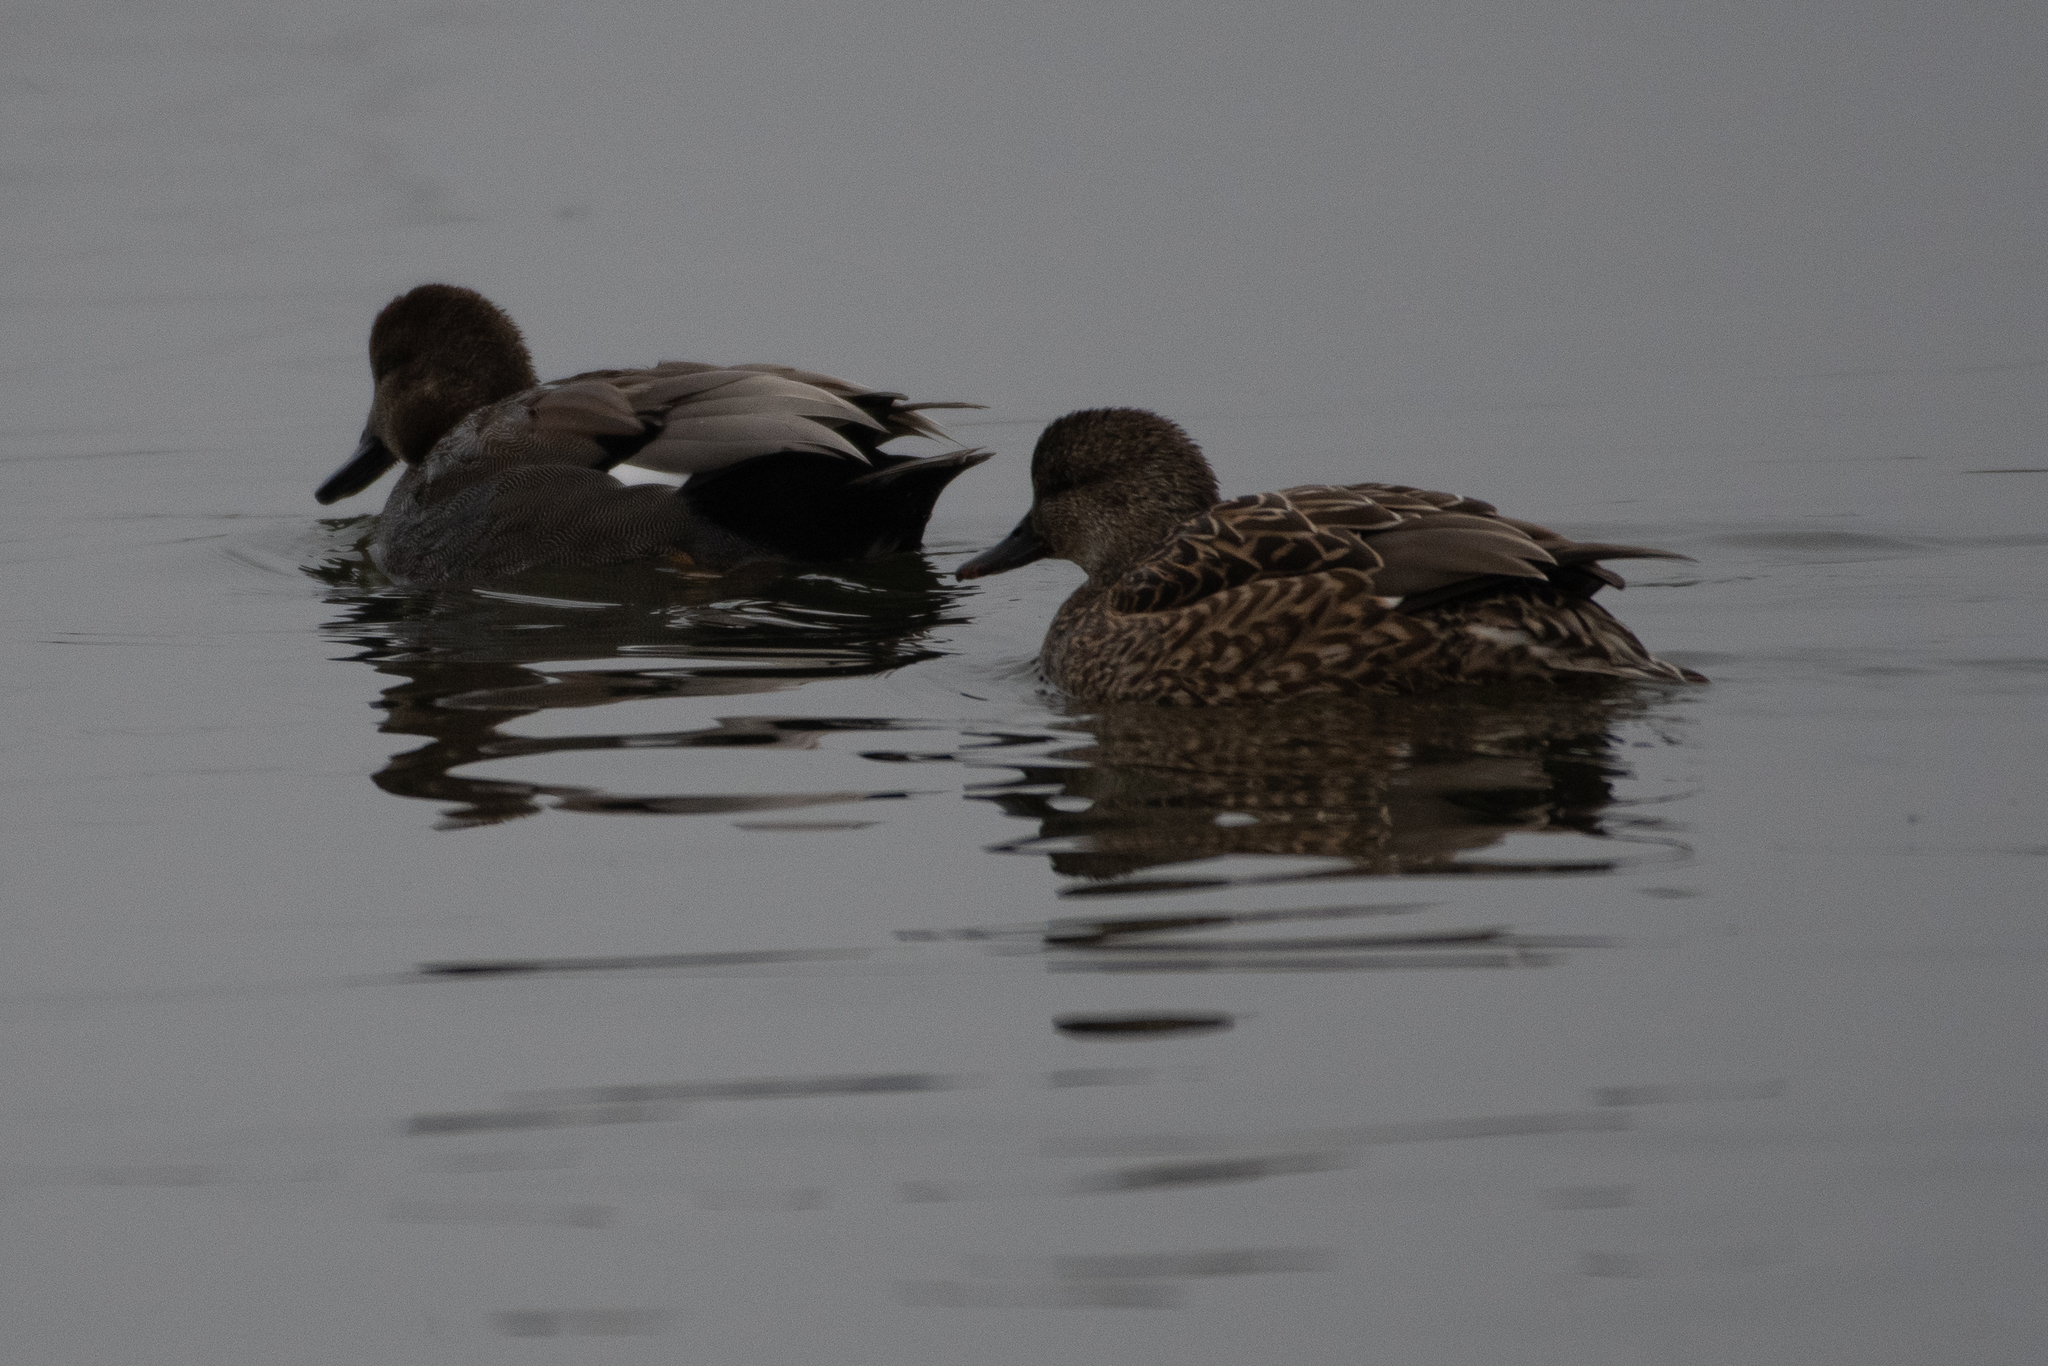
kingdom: Animalia
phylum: Chordata
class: Aves
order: Anseriformes
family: Anatidae
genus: Mareca
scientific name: Mareca strepera
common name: Gadwall
